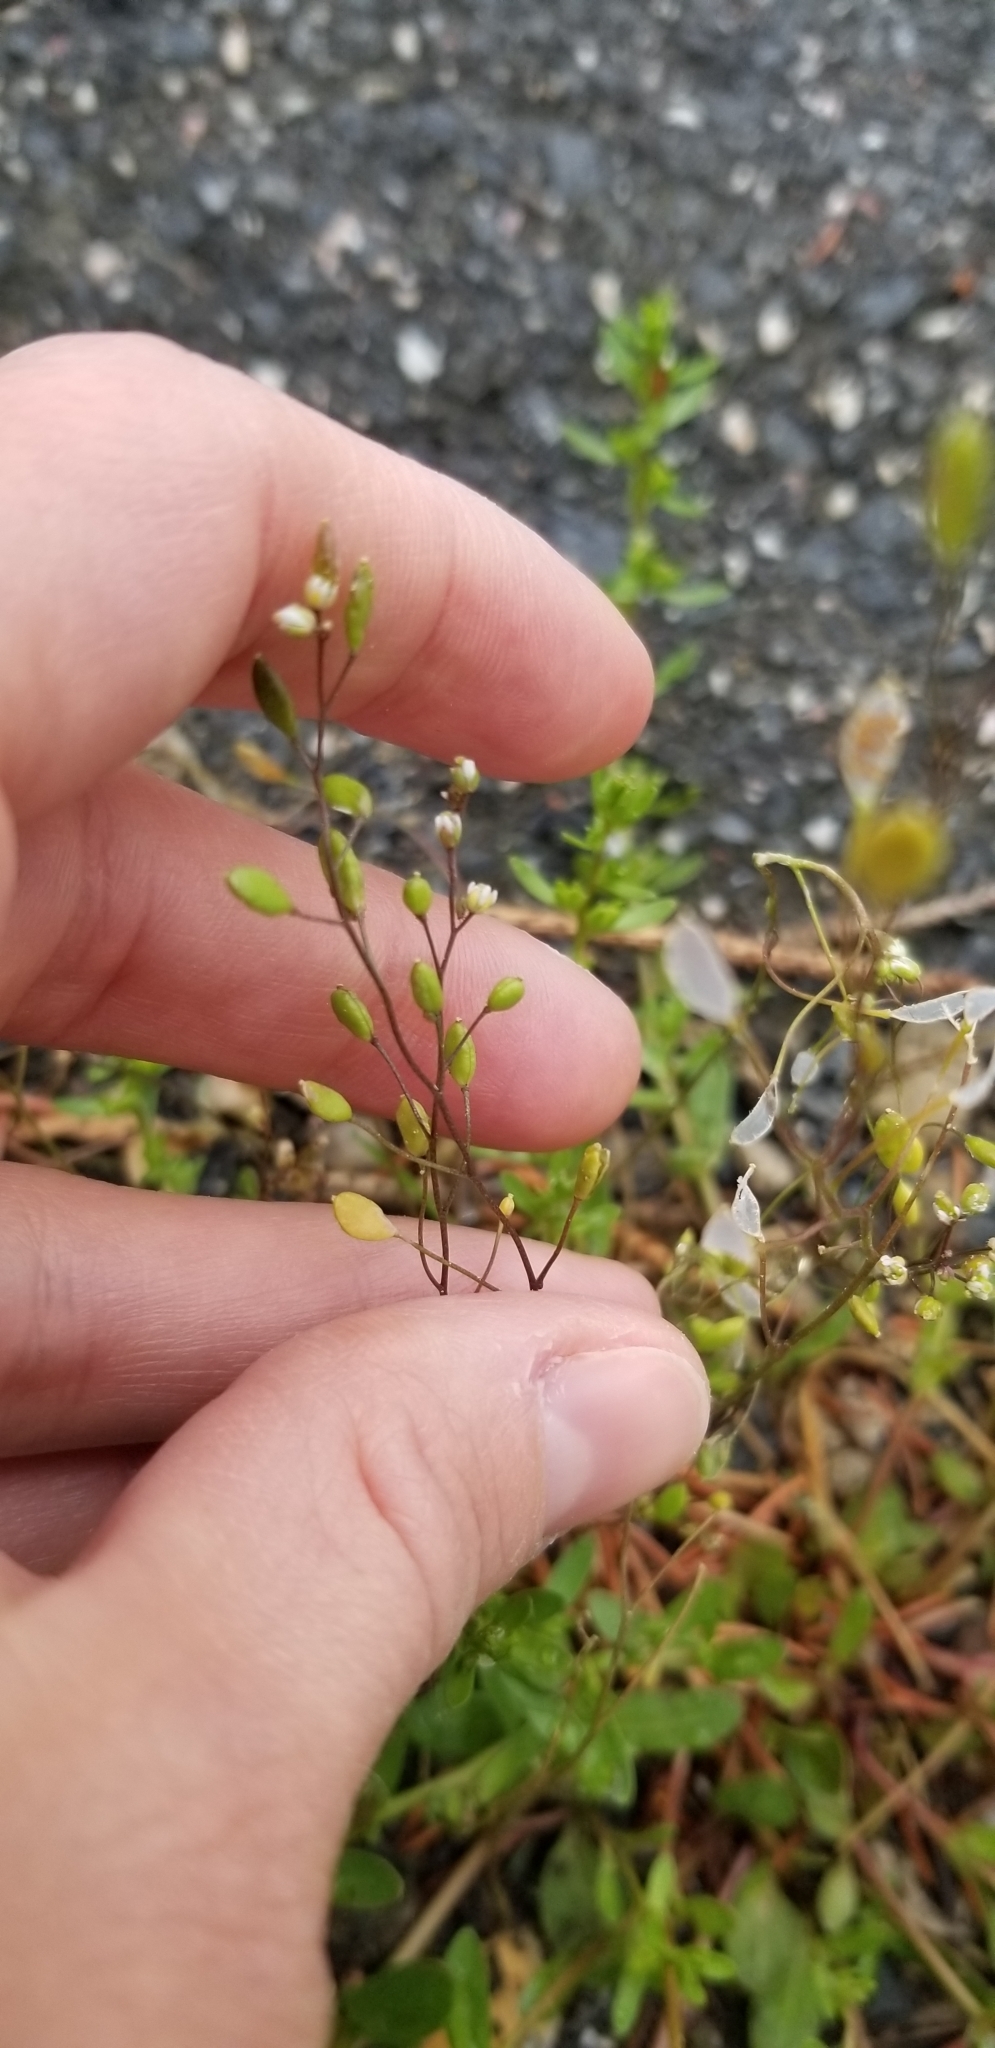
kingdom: Plantae
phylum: Tracheophyta
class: Magnoliopsida
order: Brassicales
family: Brassicaceae
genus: Draba
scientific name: Draba verna
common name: Spring draba
